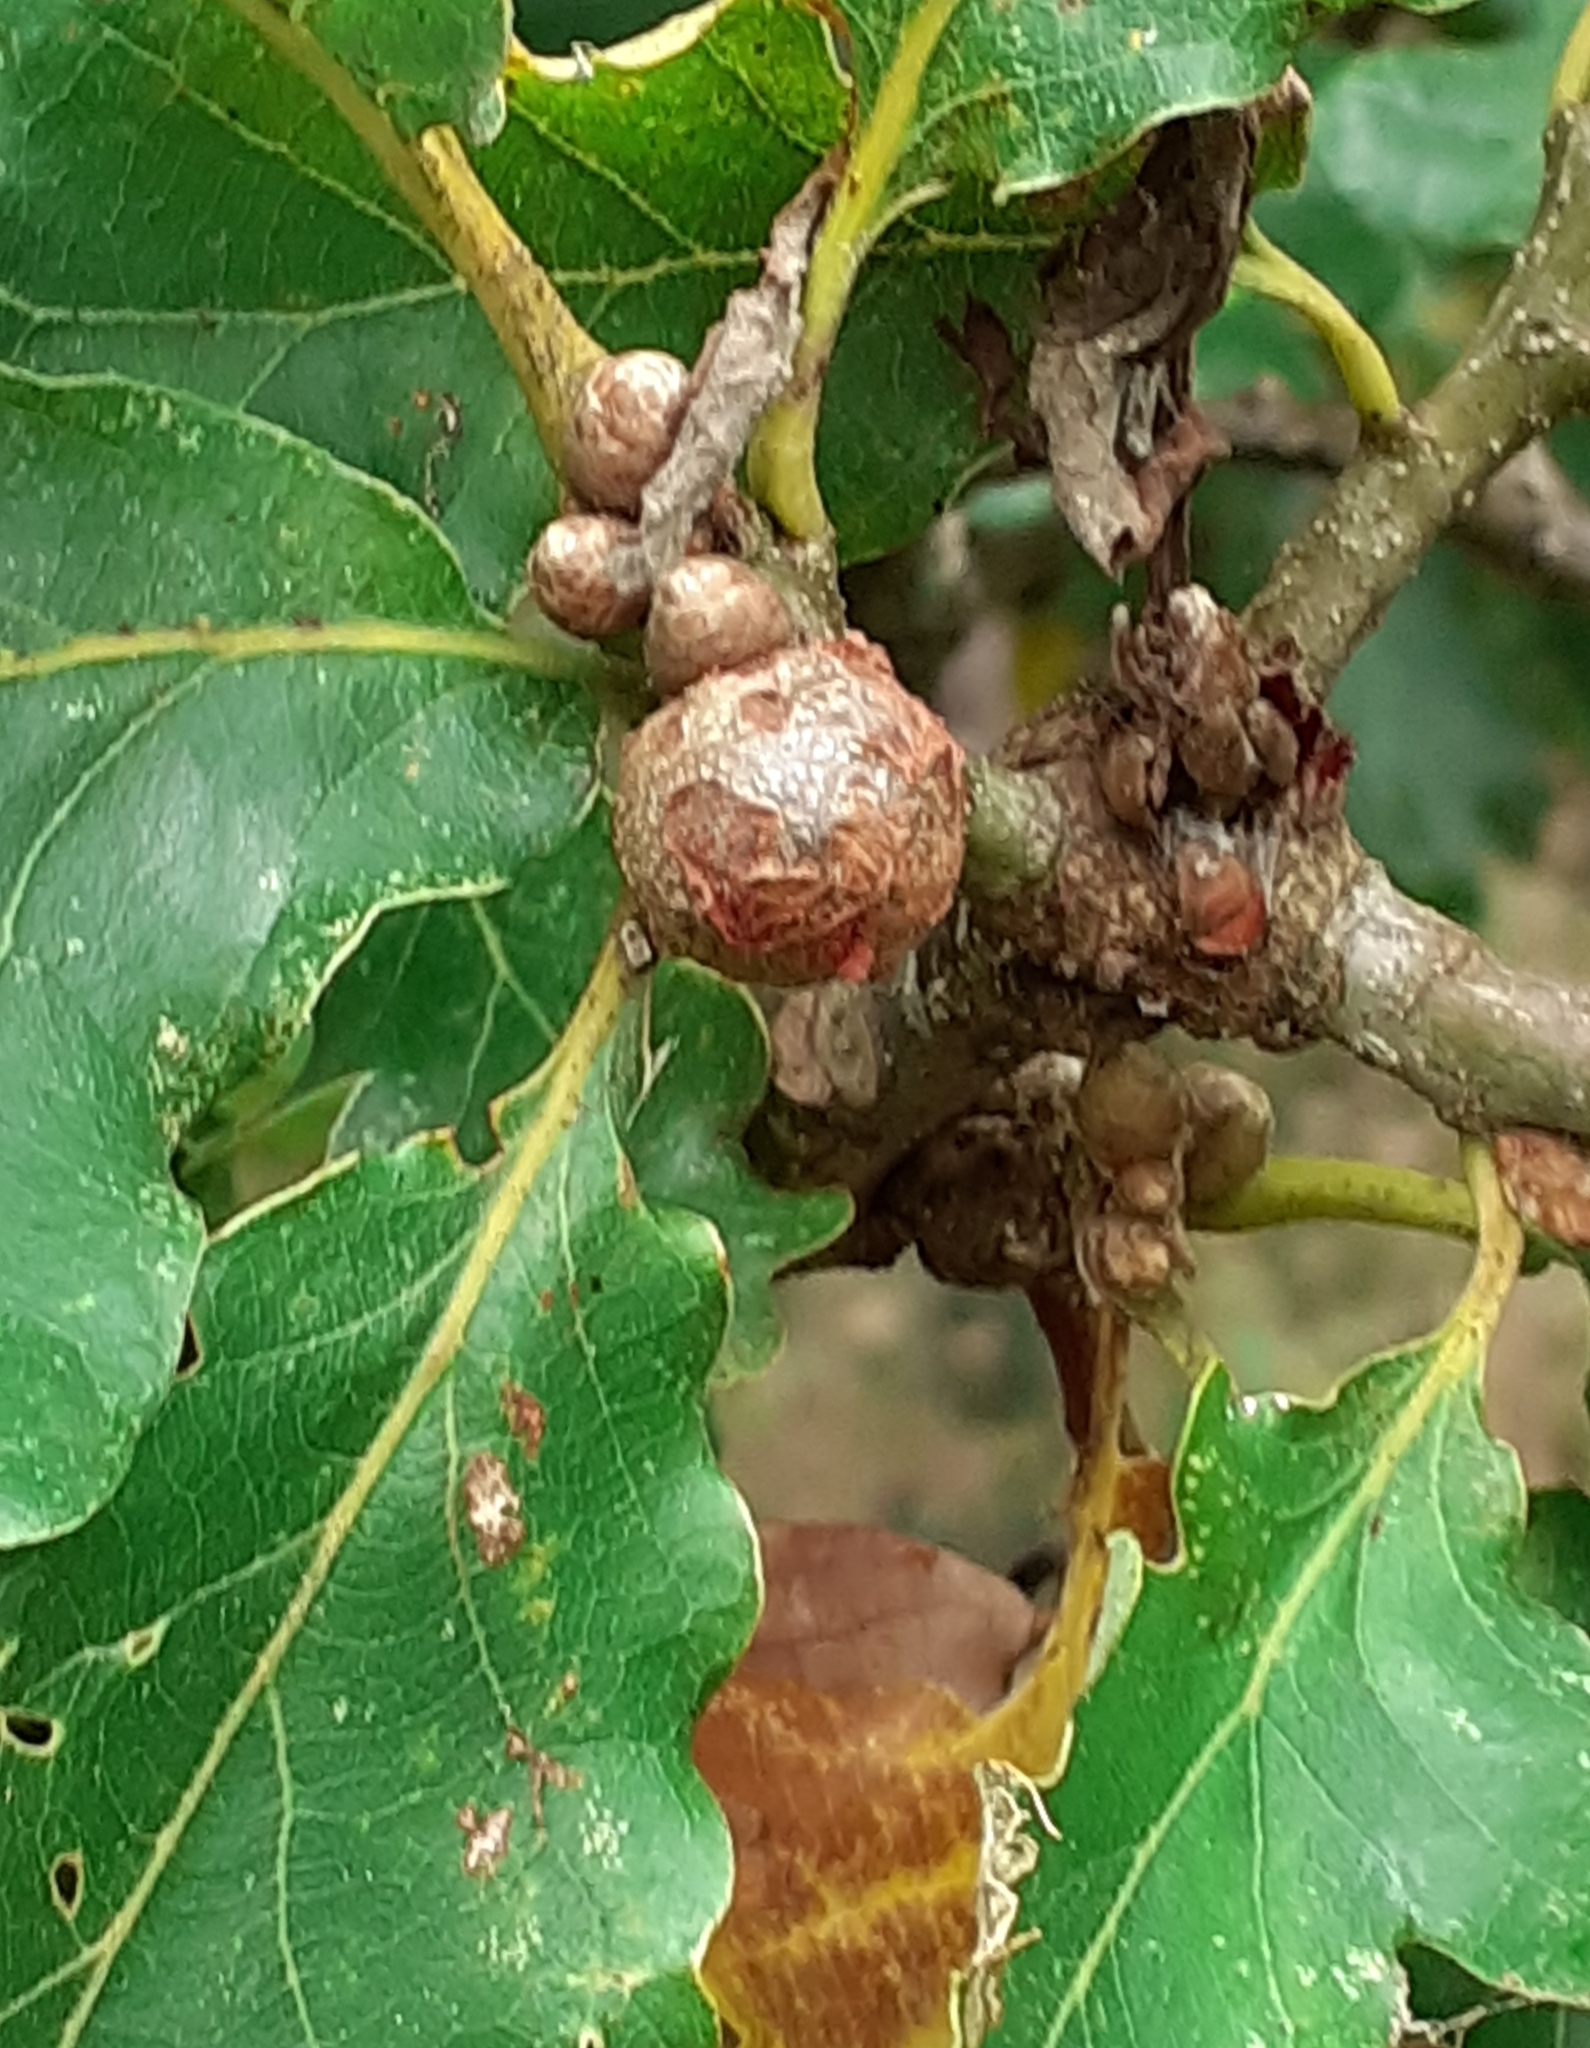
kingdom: Animalia
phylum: Arthropoda
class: Insecta
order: Hymenoptera
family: Cynipidae
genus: Andricus
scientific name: Andricus lignicolus
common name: Cola-nut gall
